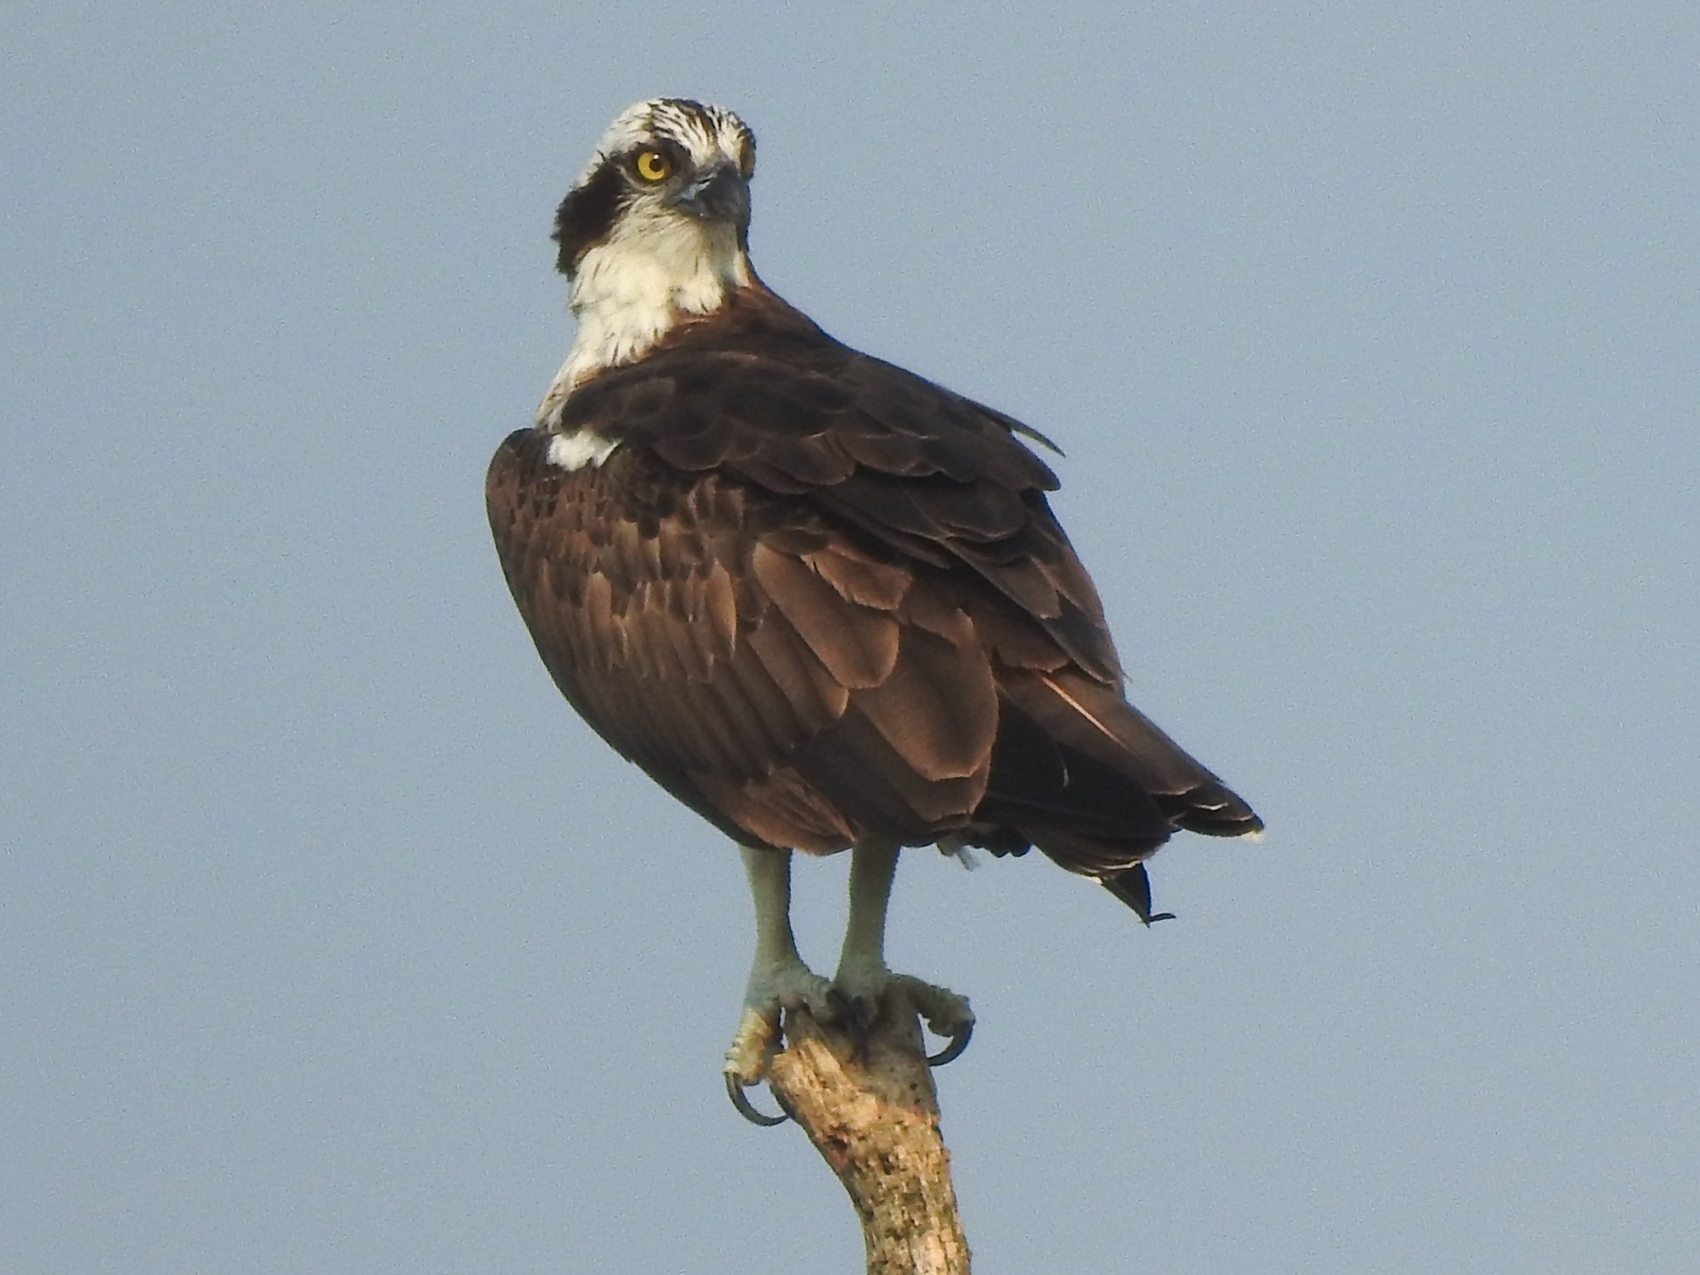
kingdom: Animalia
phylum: Chordata
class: Aves
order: Accipitriformes
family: Pandionidae
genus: Pandion
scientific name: Pandion haliaetus
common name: Osprey
